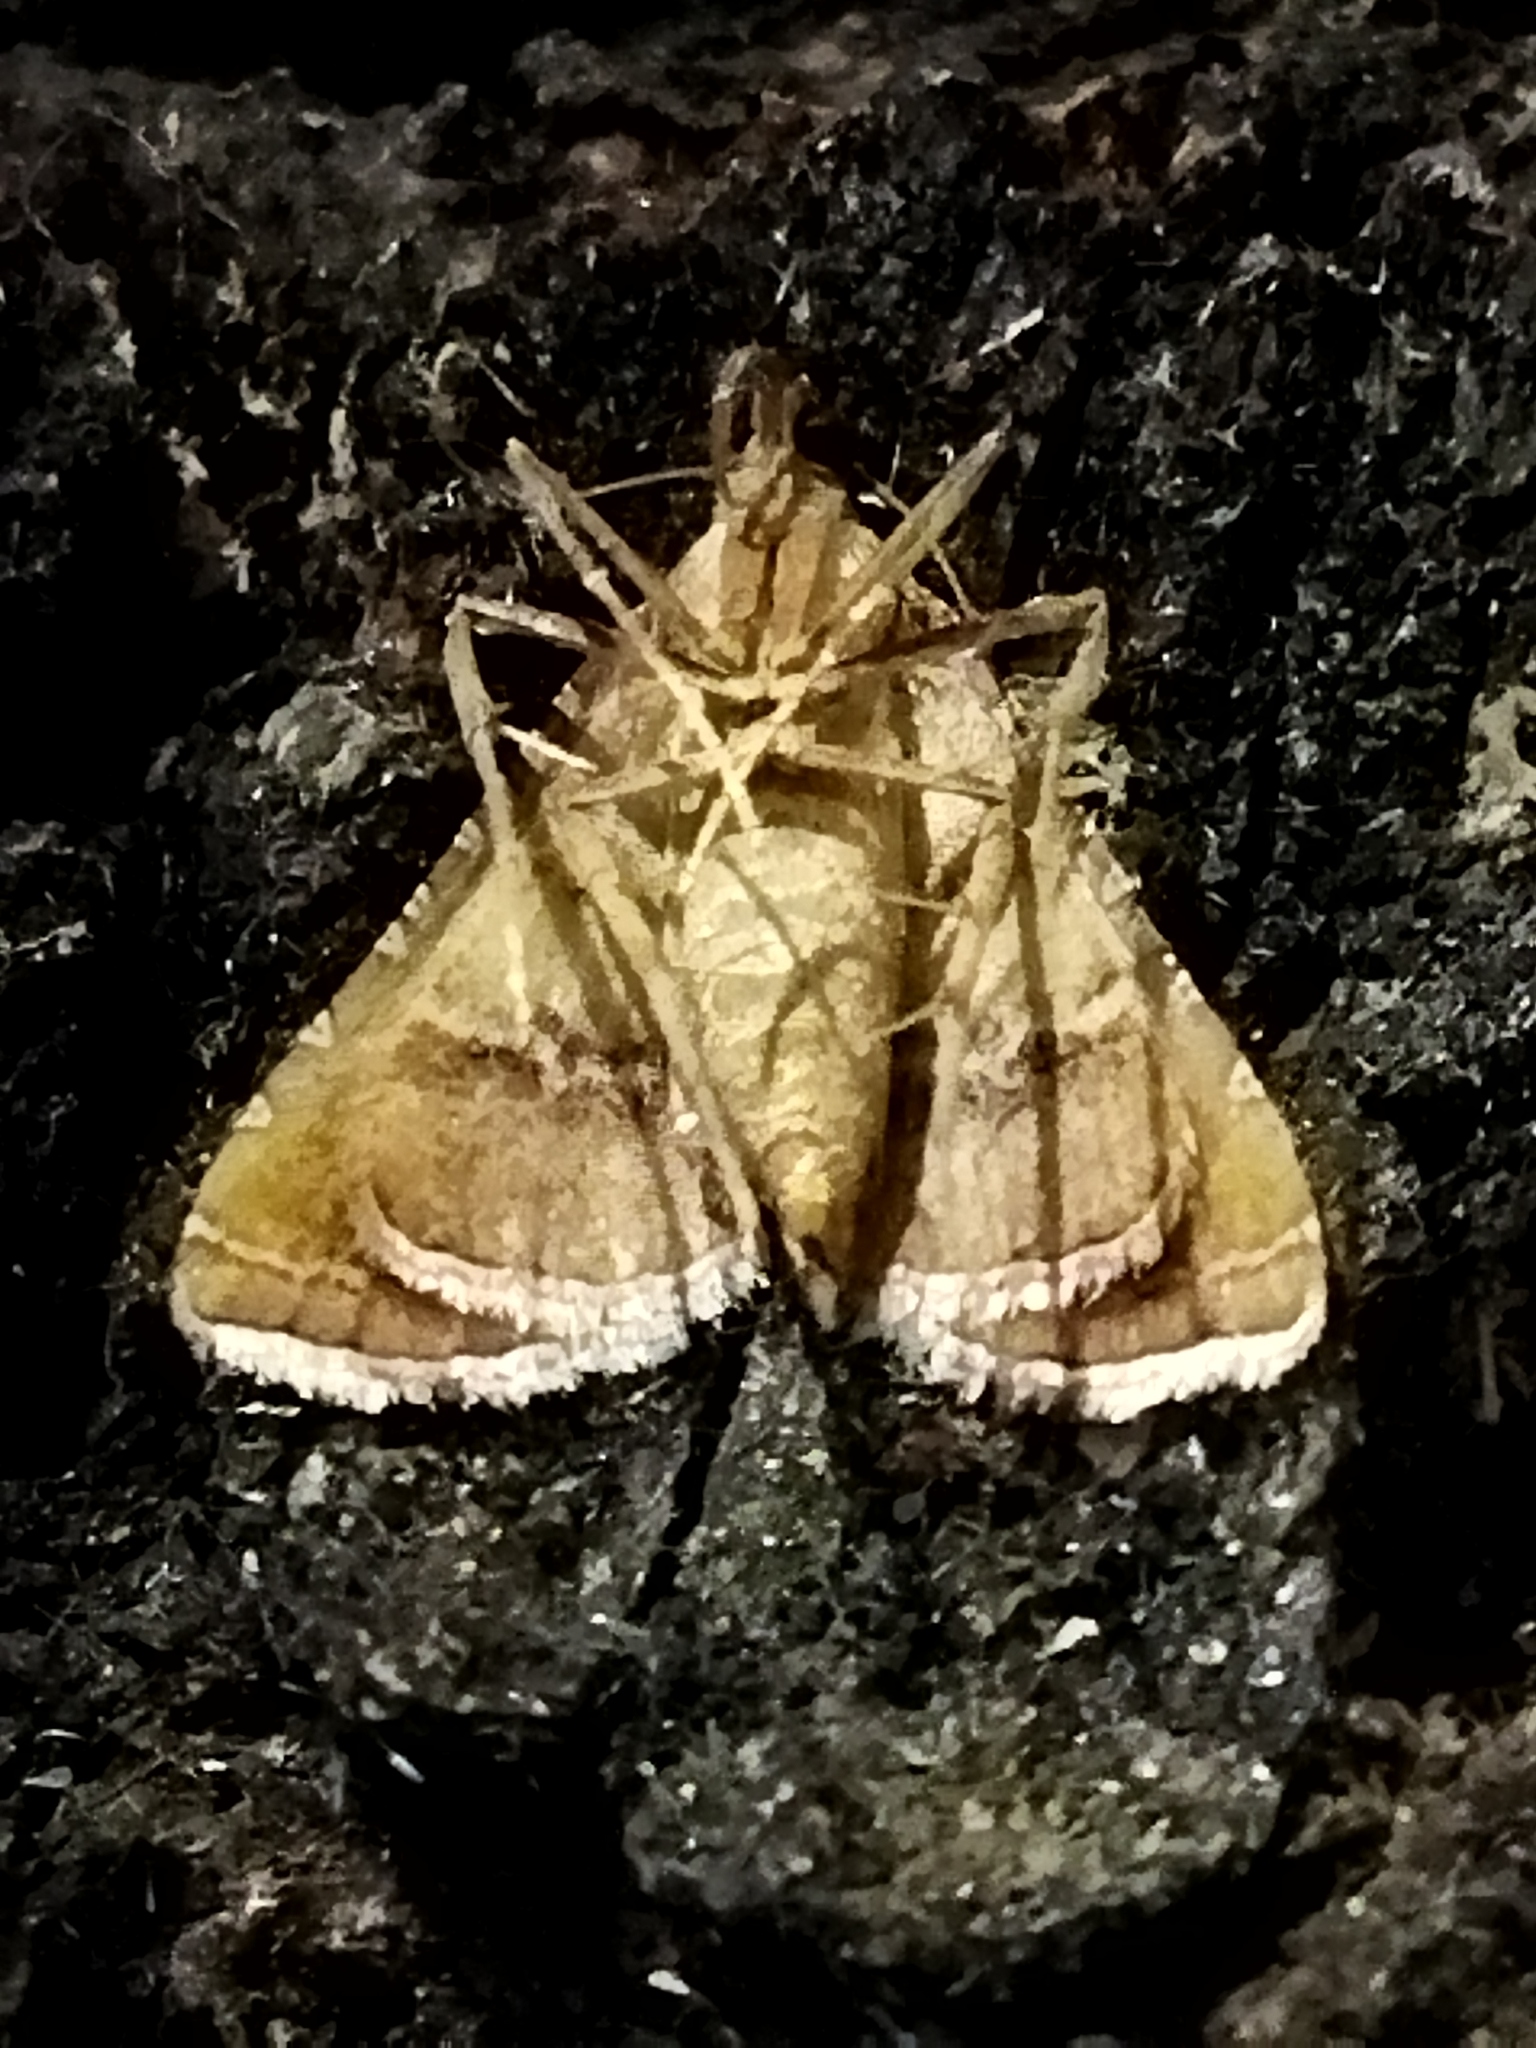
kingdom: Animalia
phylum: Arthropoda
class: Insecta
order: Lepidoptera
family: Pyralidae
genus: Endotricha
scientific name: Endotricha flammealis
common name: Rosy tabby
